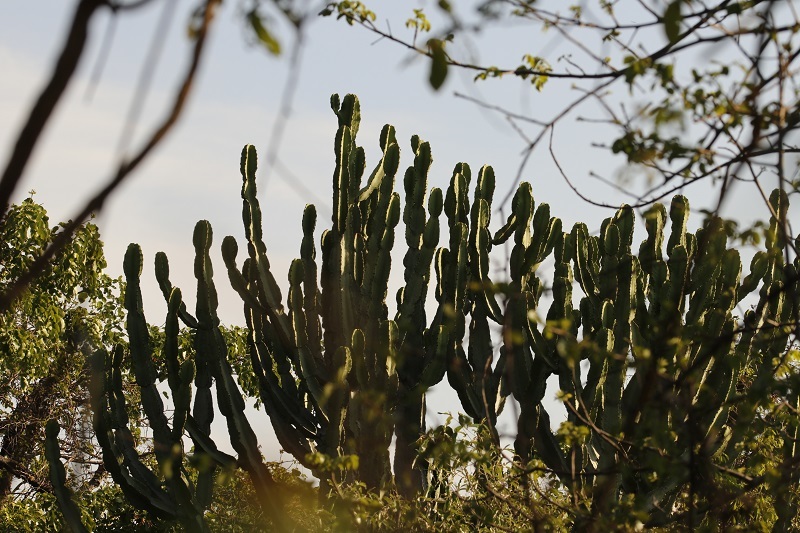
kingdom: Plantae
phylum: Tracheophyta
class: Magnoliopsida
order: Malpighiales
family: Euphorbiaceae
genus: Euphorbia
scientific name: Euphorbia ingens
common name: Cactus spurge
